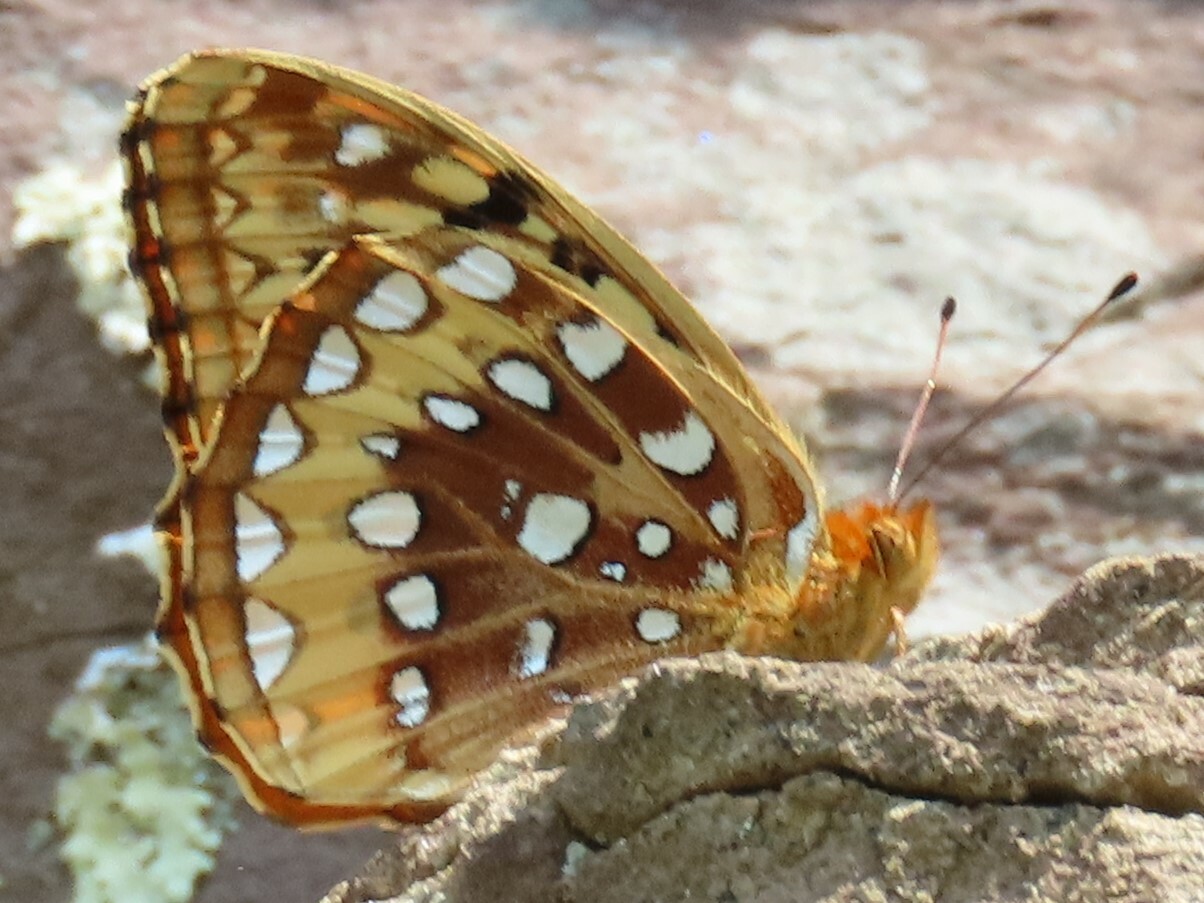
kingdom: Animalia
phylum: Arthropoda
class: Insecta
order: Lepidoptera
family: Nymphalidae
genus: Speyeria
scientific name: Speyeria cybele
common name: Great spangled fritillary
